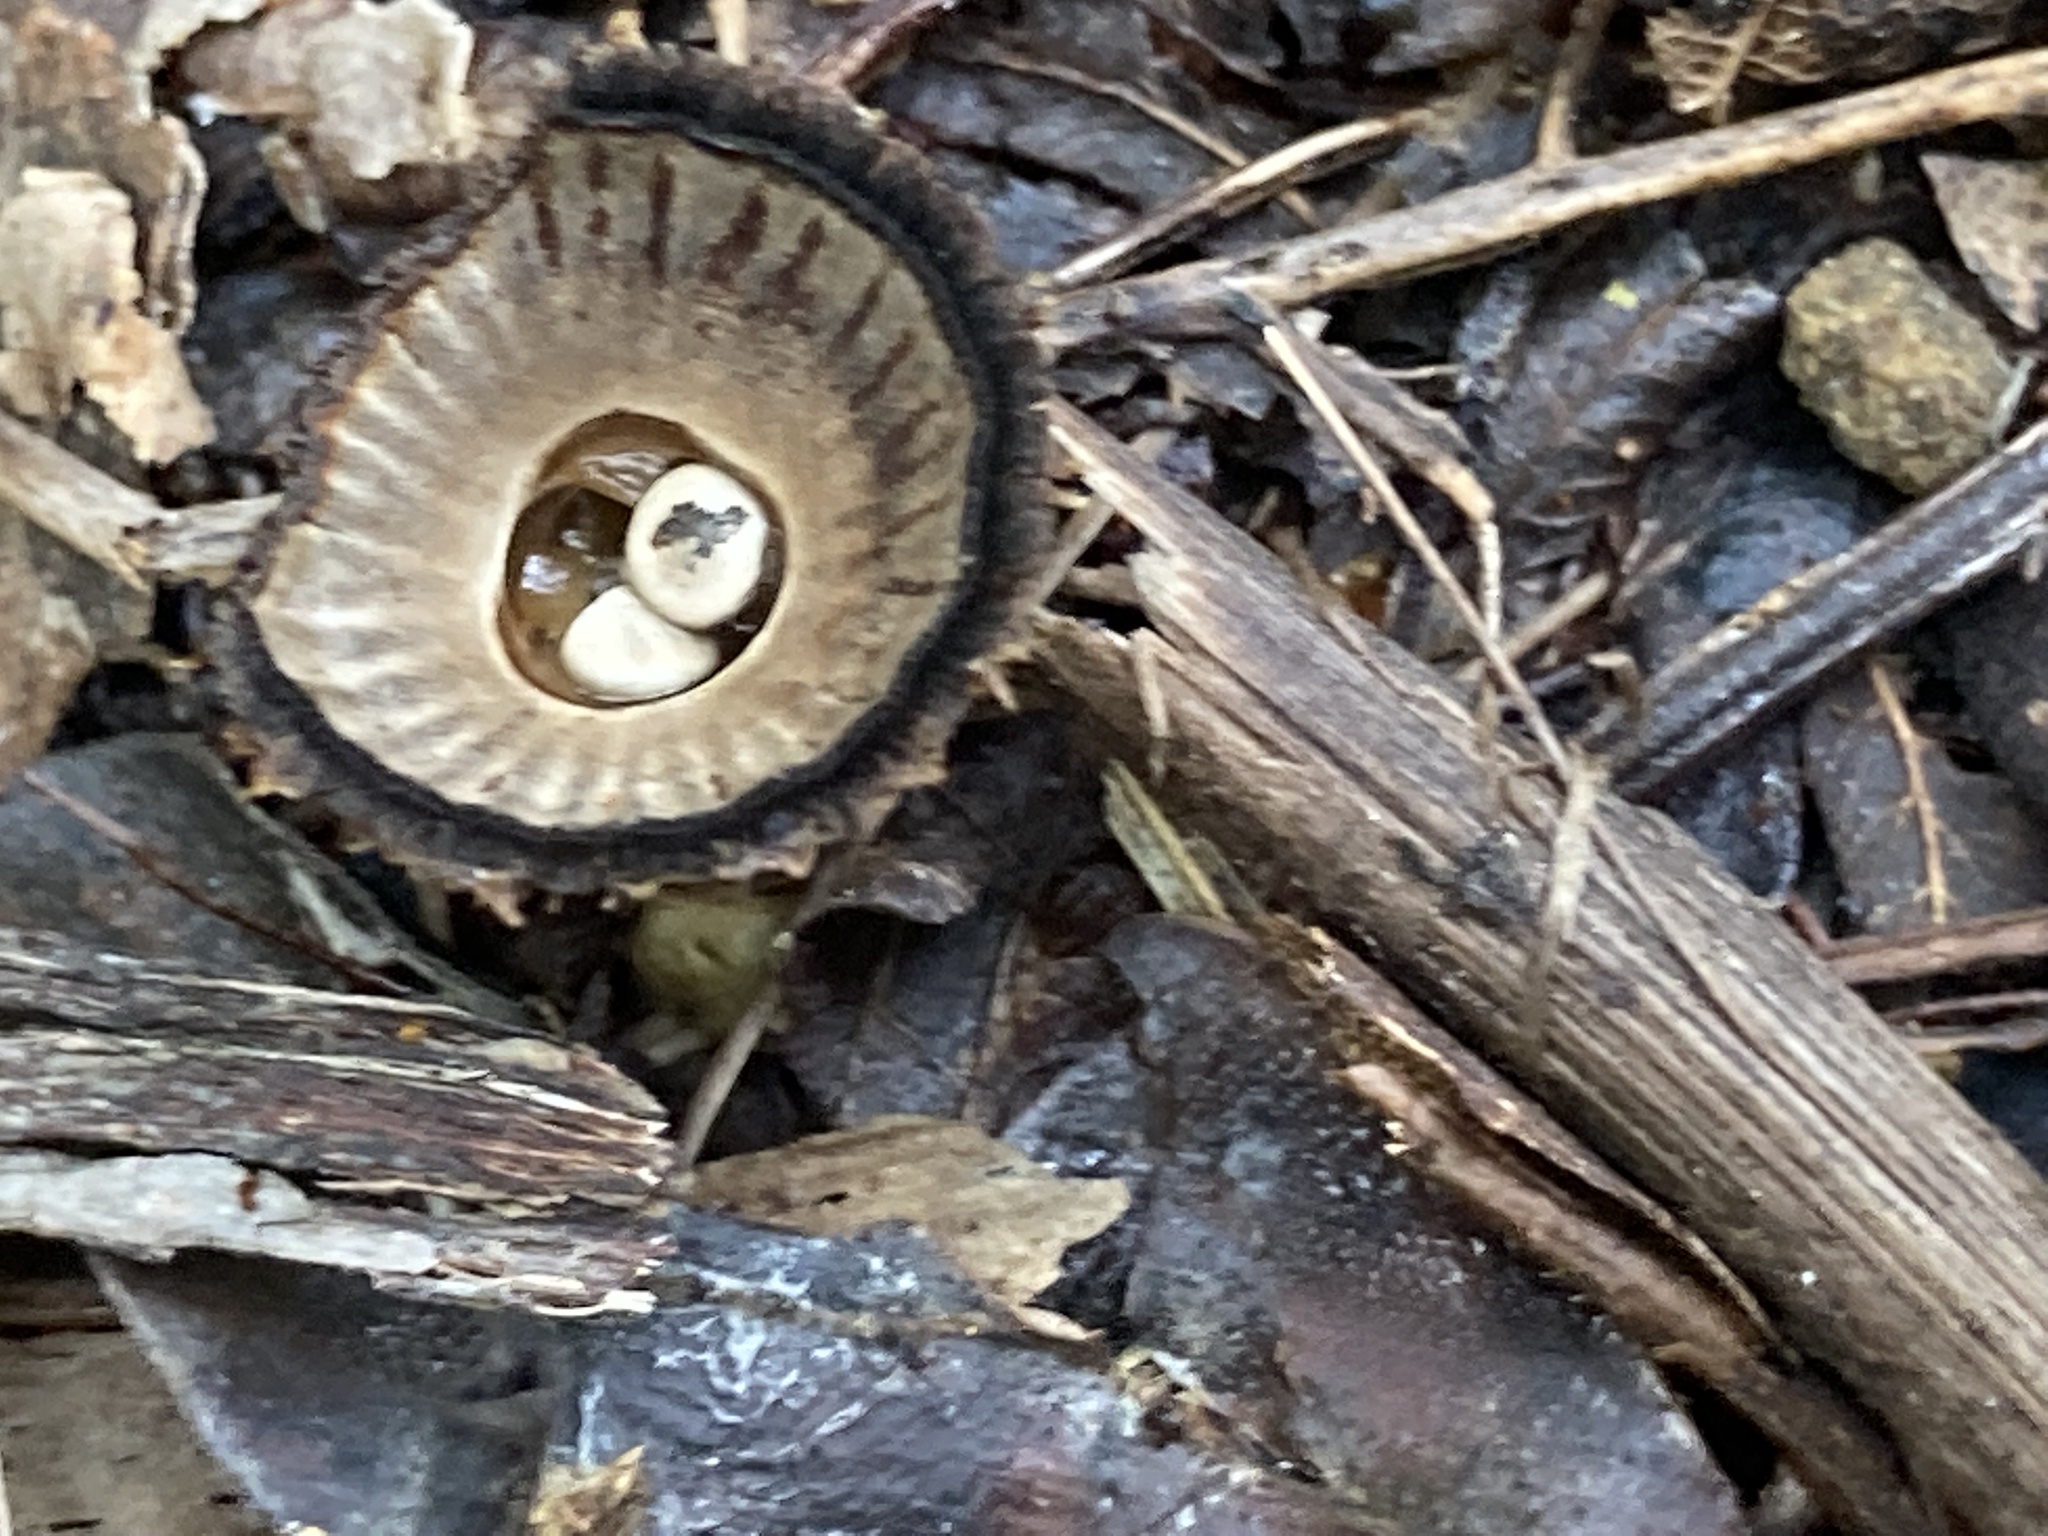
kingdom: Fungi
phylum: Basidiomycota
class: Agaricomycetes
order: Agaricales
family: Agaricaceae
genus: Cyathus
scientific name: Cyathus striatus
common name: Fluted bird's nest
